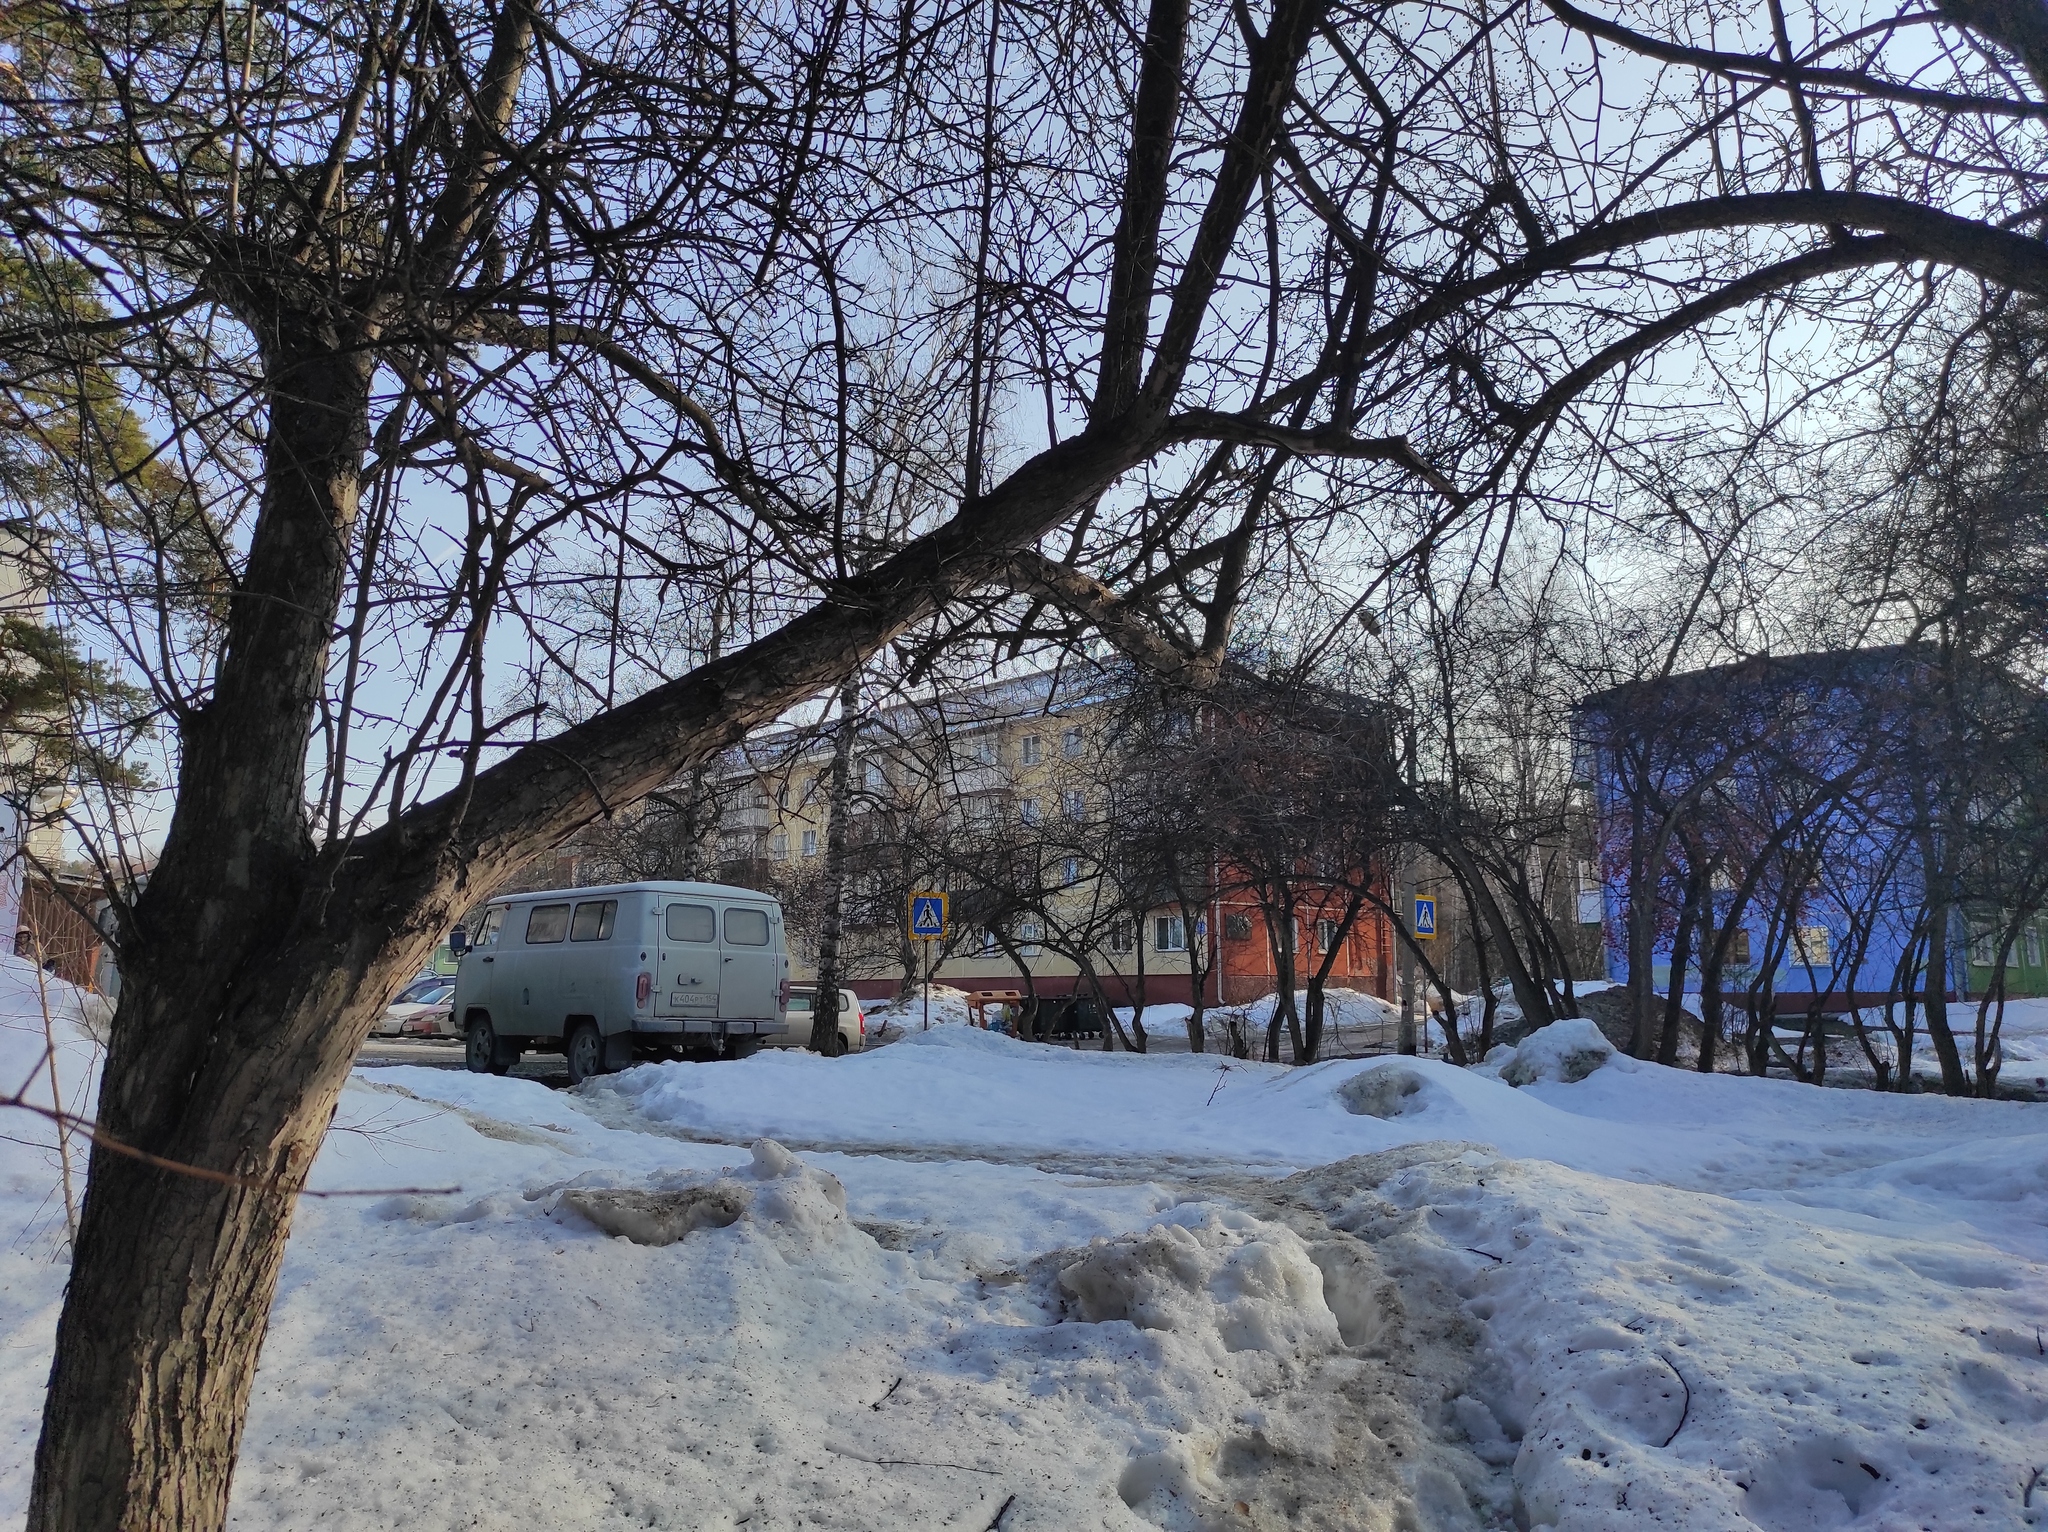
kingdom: Animalia
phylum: Chordata
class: Aves
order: Passeriformes
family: Paridae
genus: Parus
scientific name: Parus major
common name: Great tit
